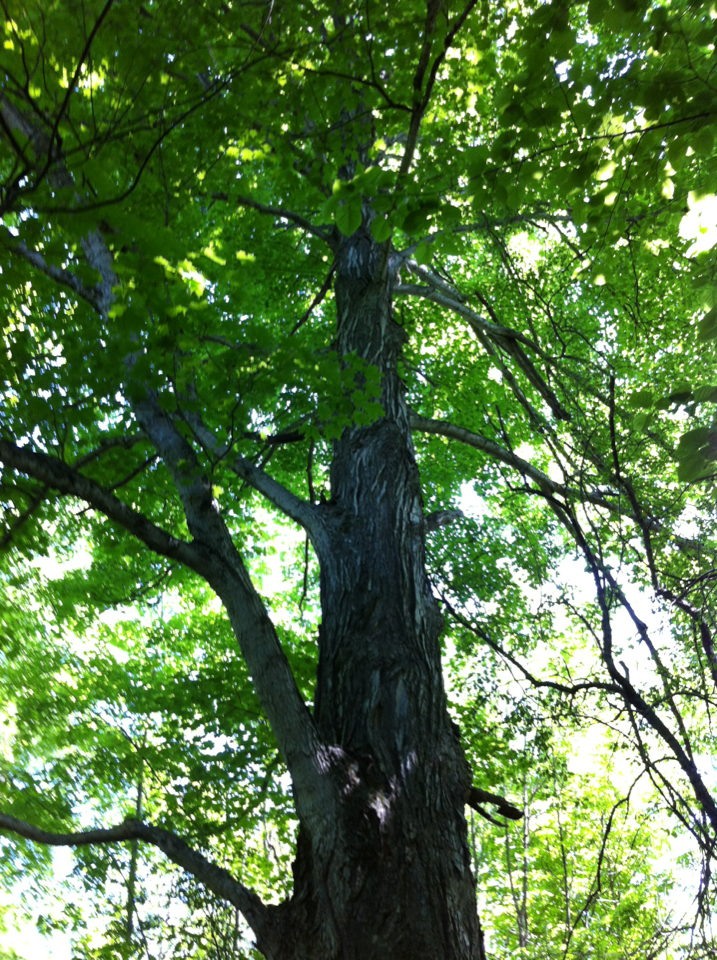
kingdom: Plantae
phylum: Tracheophyta
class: Magnoliopsida
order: Sapindales
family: Sapindaceae
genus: Acer
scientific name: Acer saccharum
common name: Sugar maple
